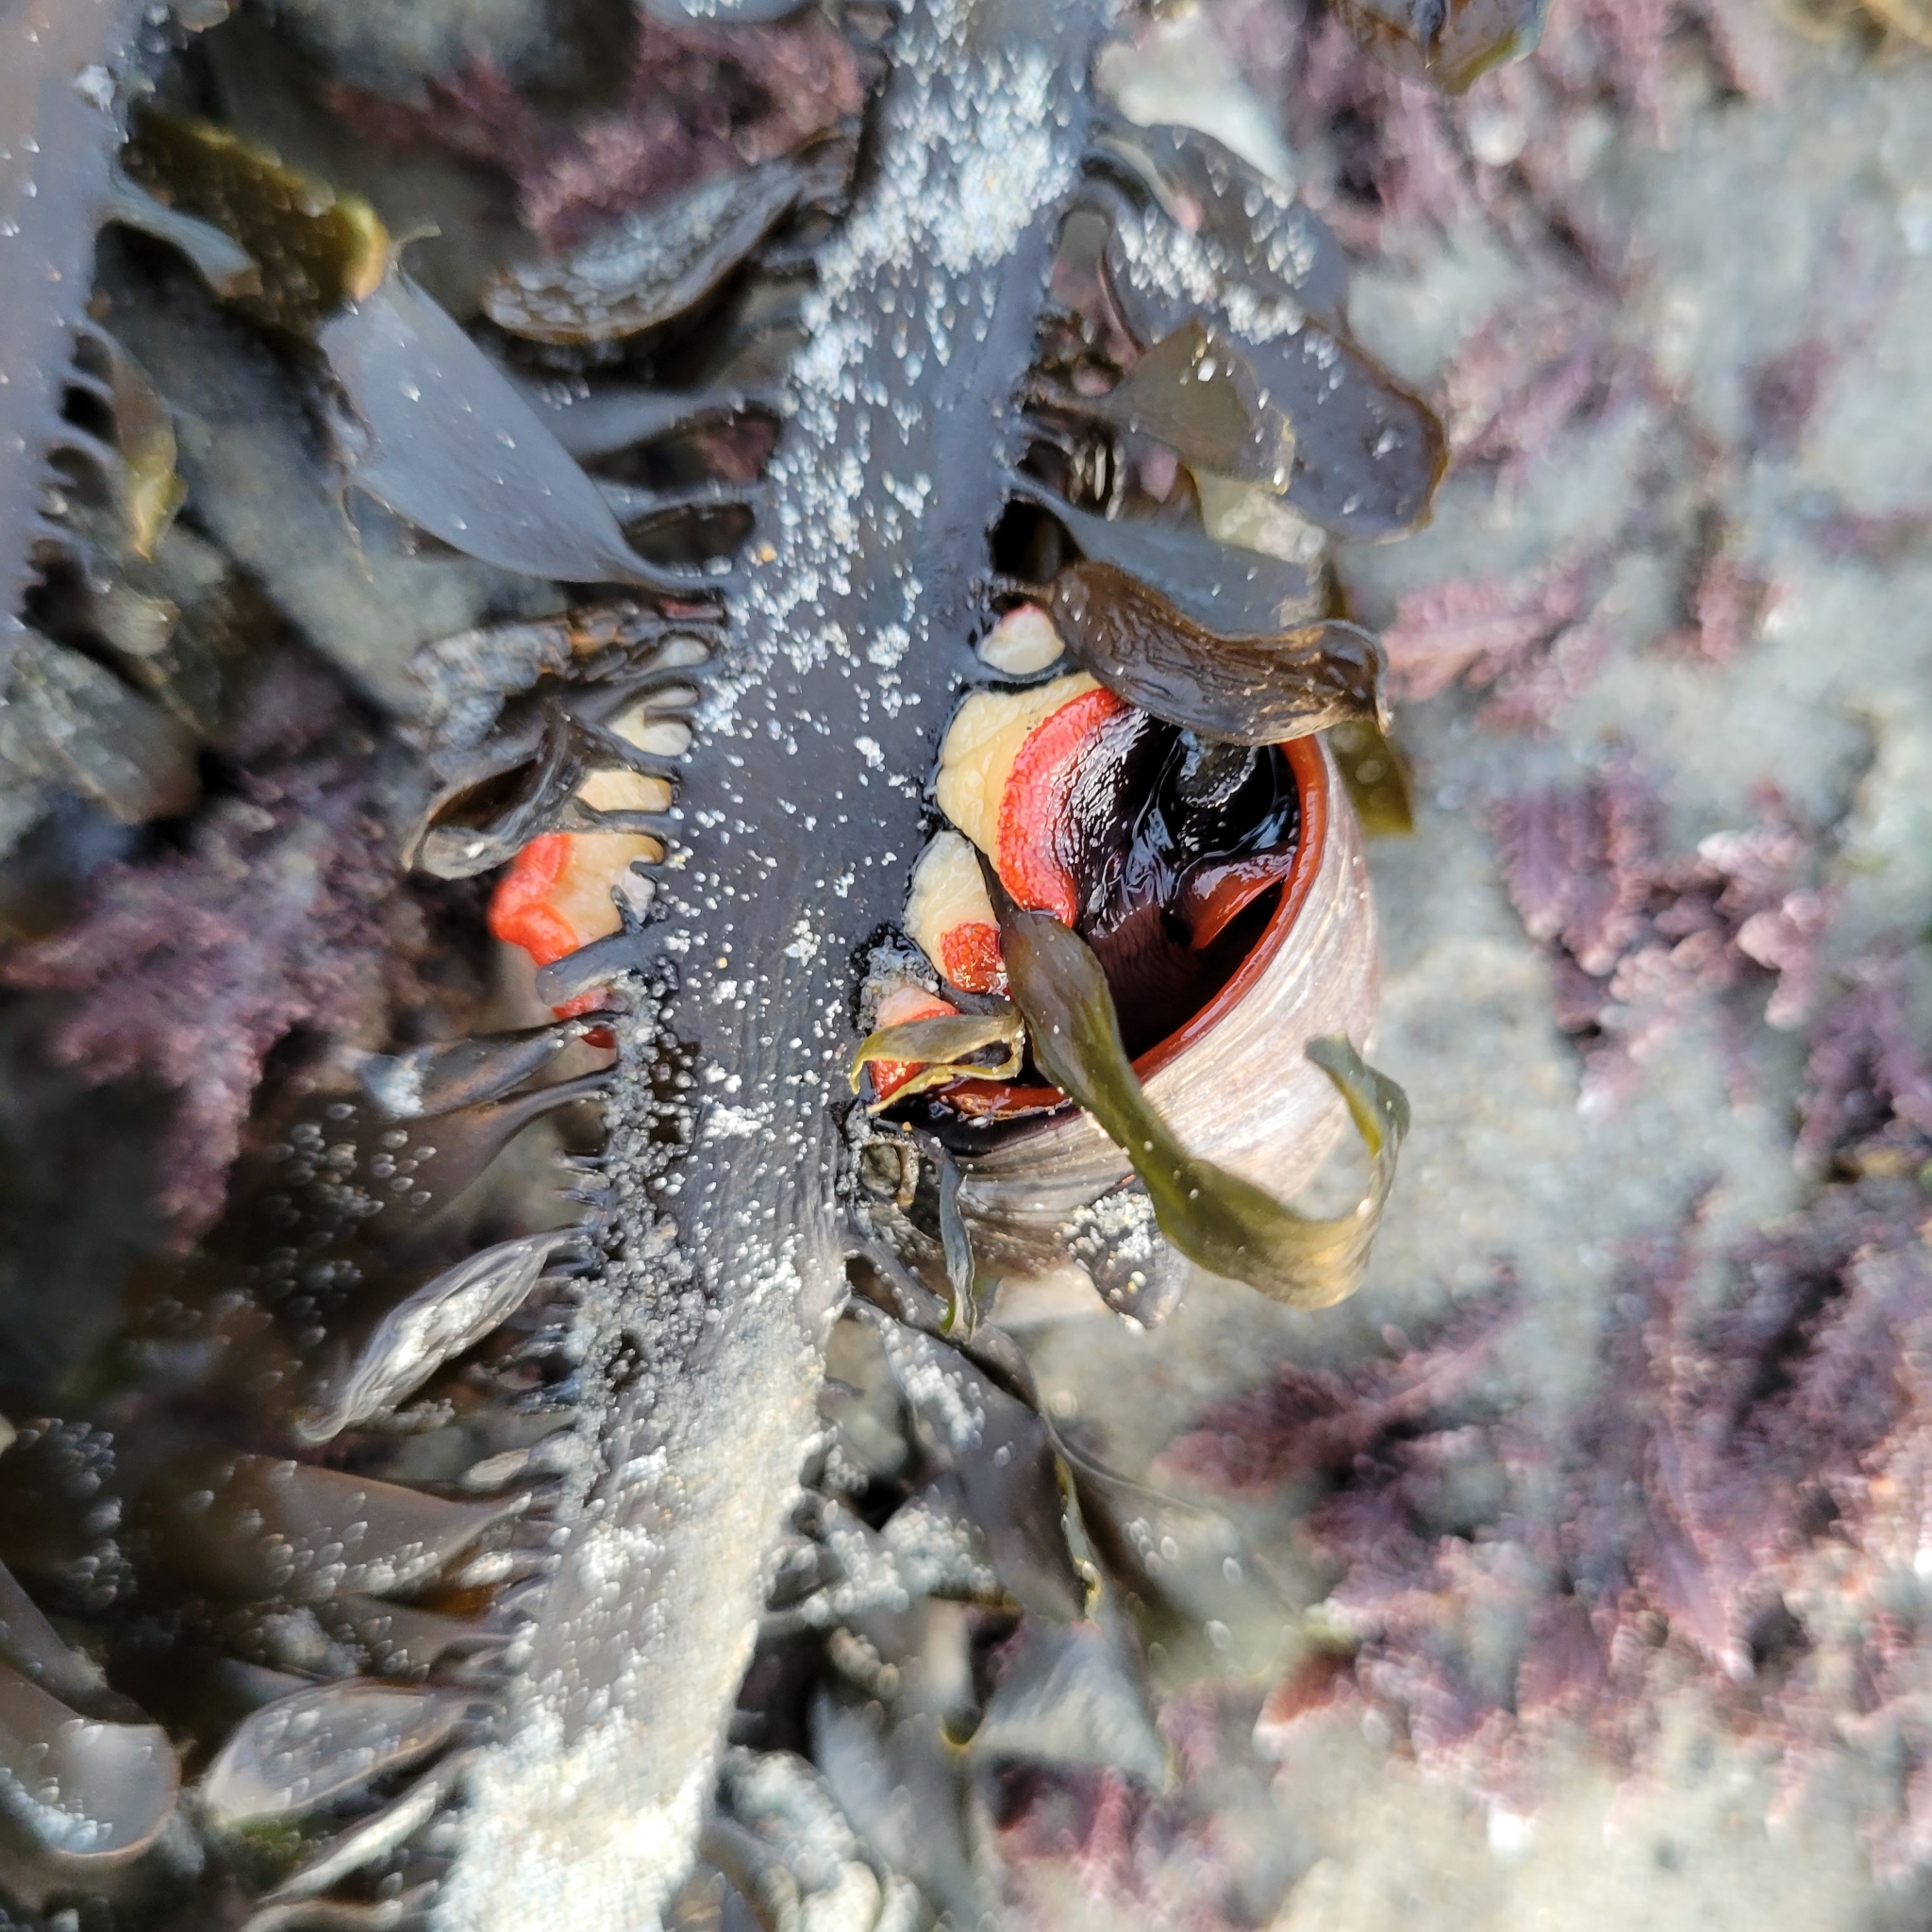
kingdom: Animalia
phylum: Mollusca
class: Gastropoda
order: Trochida
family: Tegulidae
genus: Norrisia
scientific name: Norrisia norrisii
